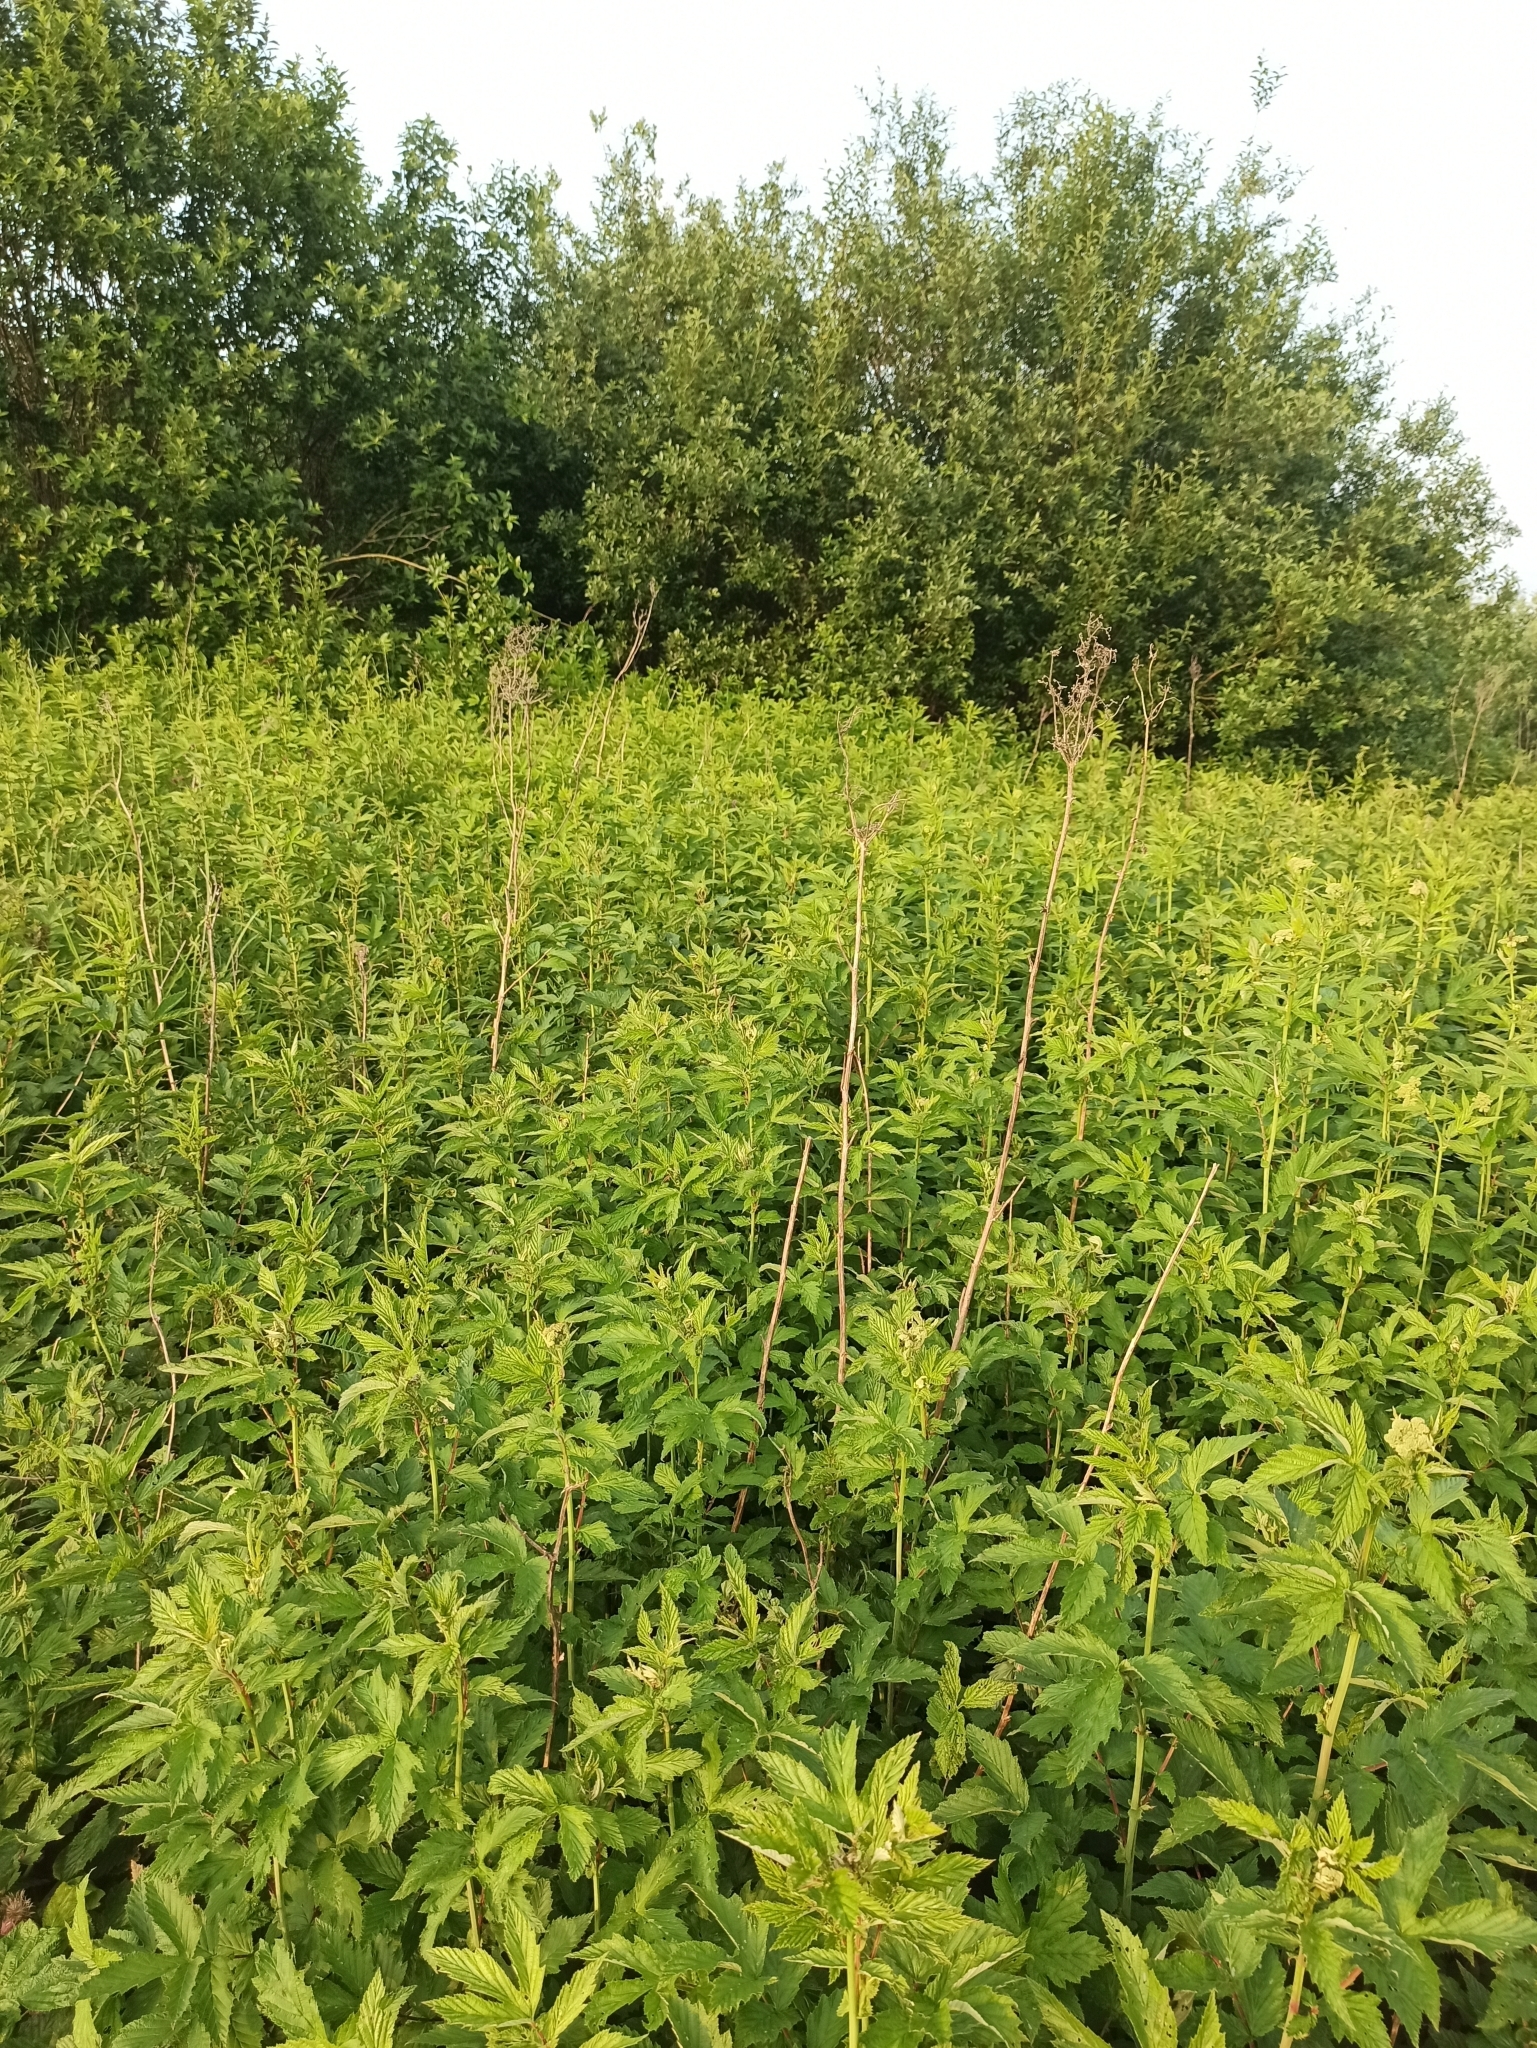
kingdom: Plantae
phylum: Tracheophyta
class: Magnoliopsida
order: Rosales
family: Rosaceae
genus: Filipendula
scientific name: Filipendula ulmaria
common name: Meadowsweet
